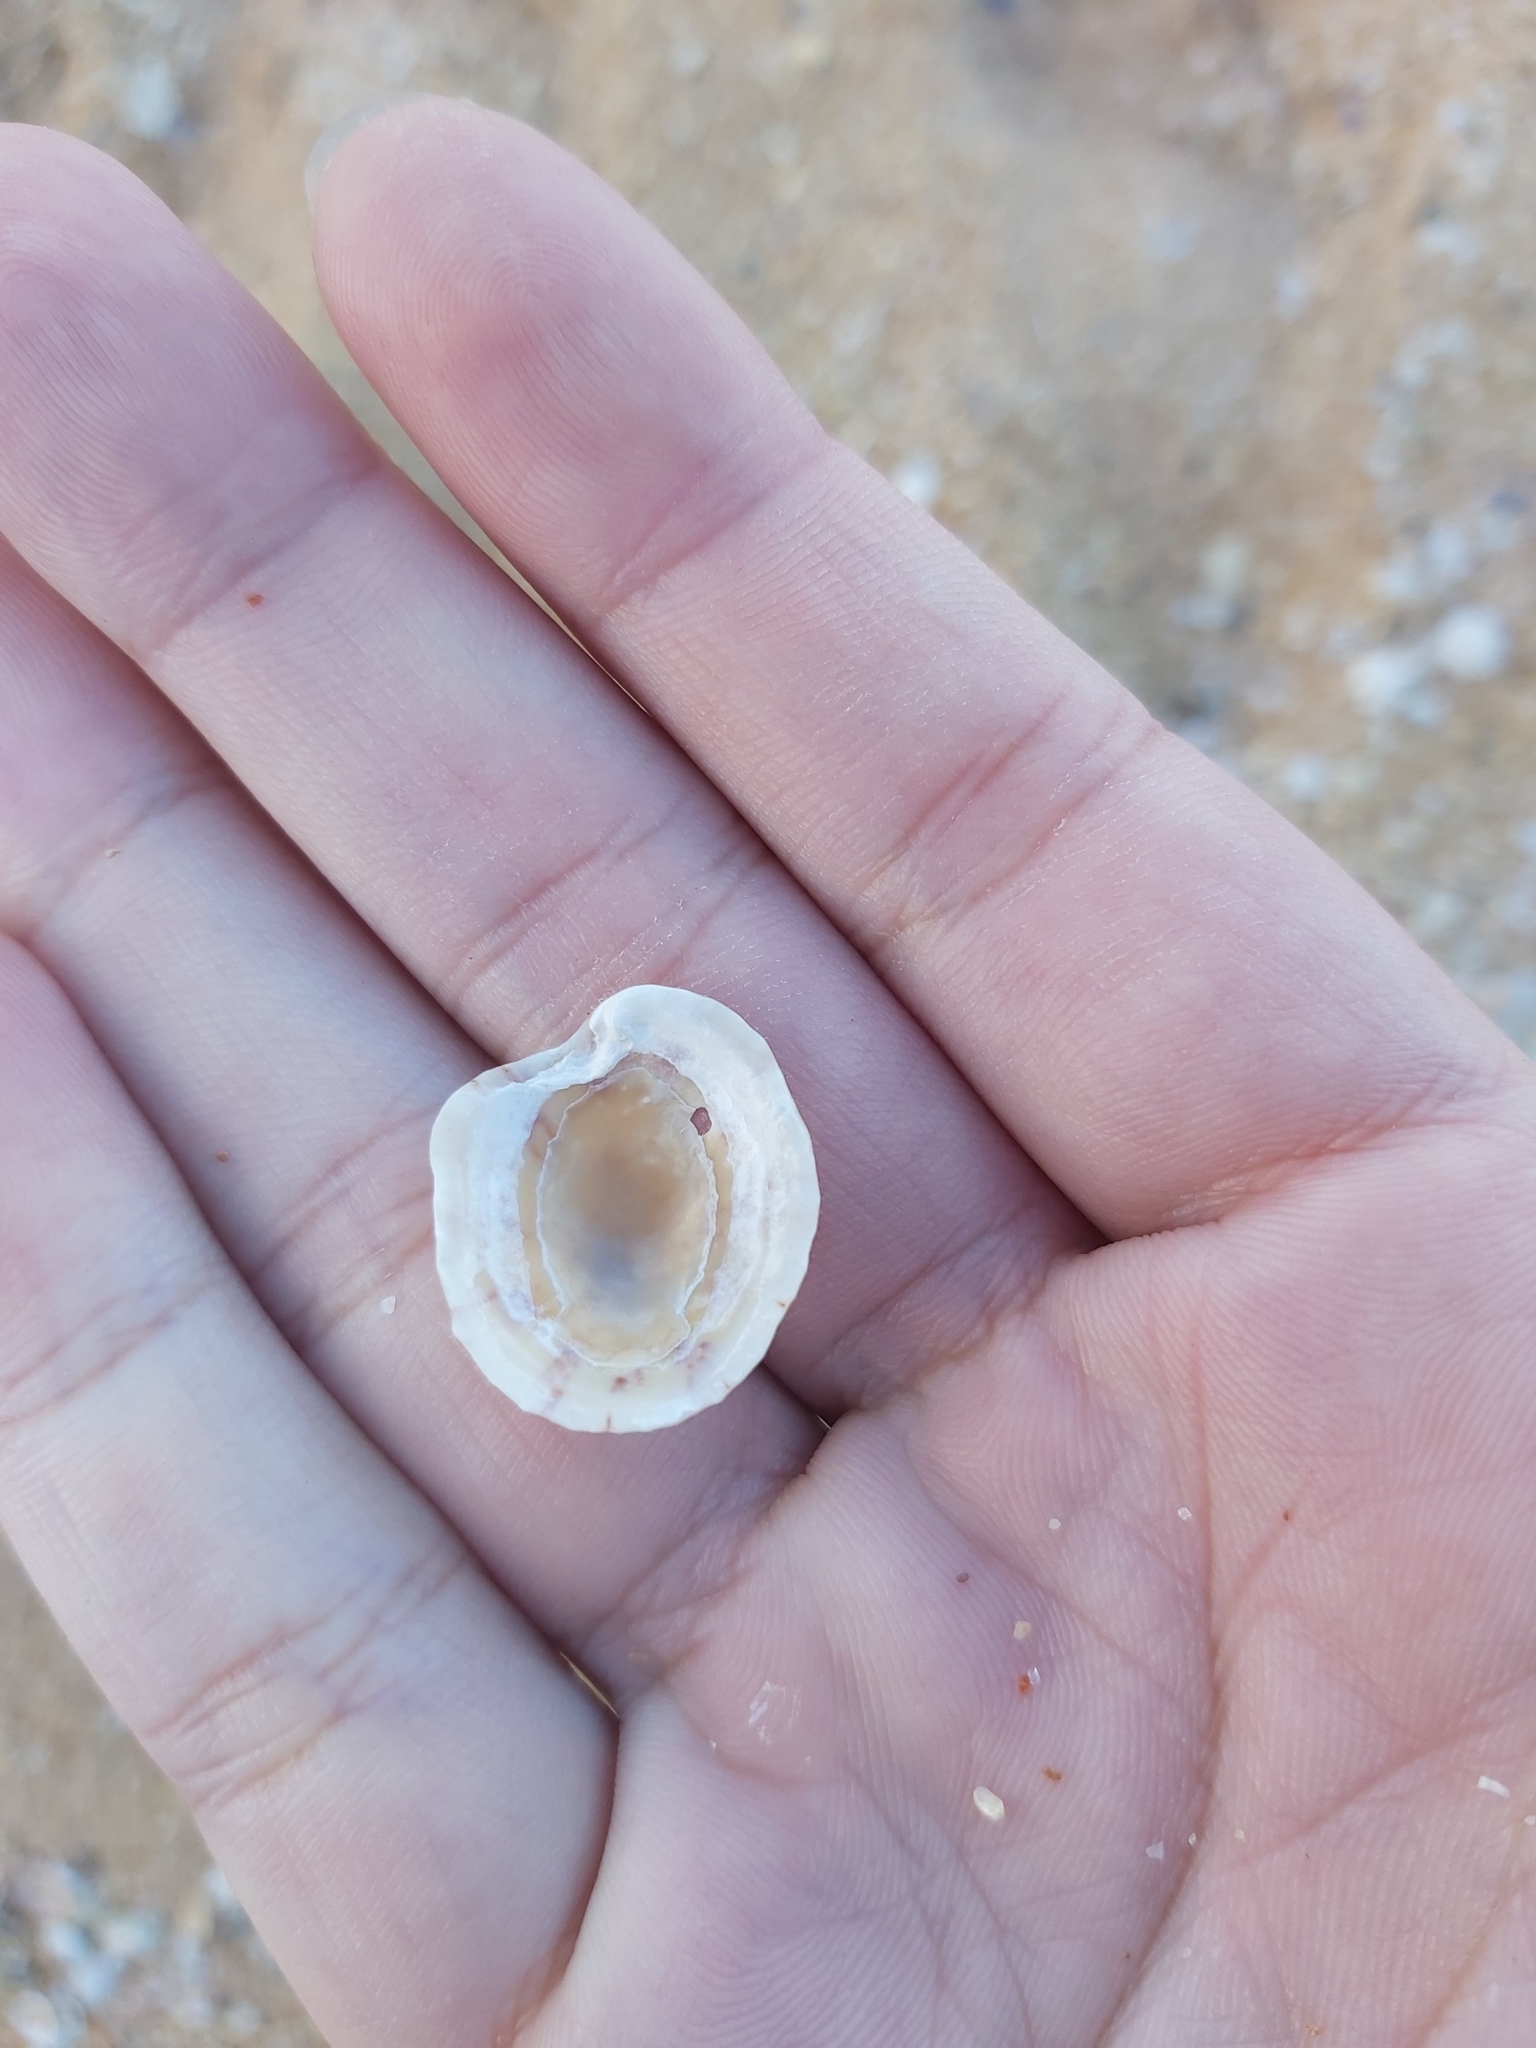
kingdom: Animalia
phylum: Mollusca
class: Gastropoda
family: Nacellidae
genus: Cellana
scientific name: Cellana tramoserica
